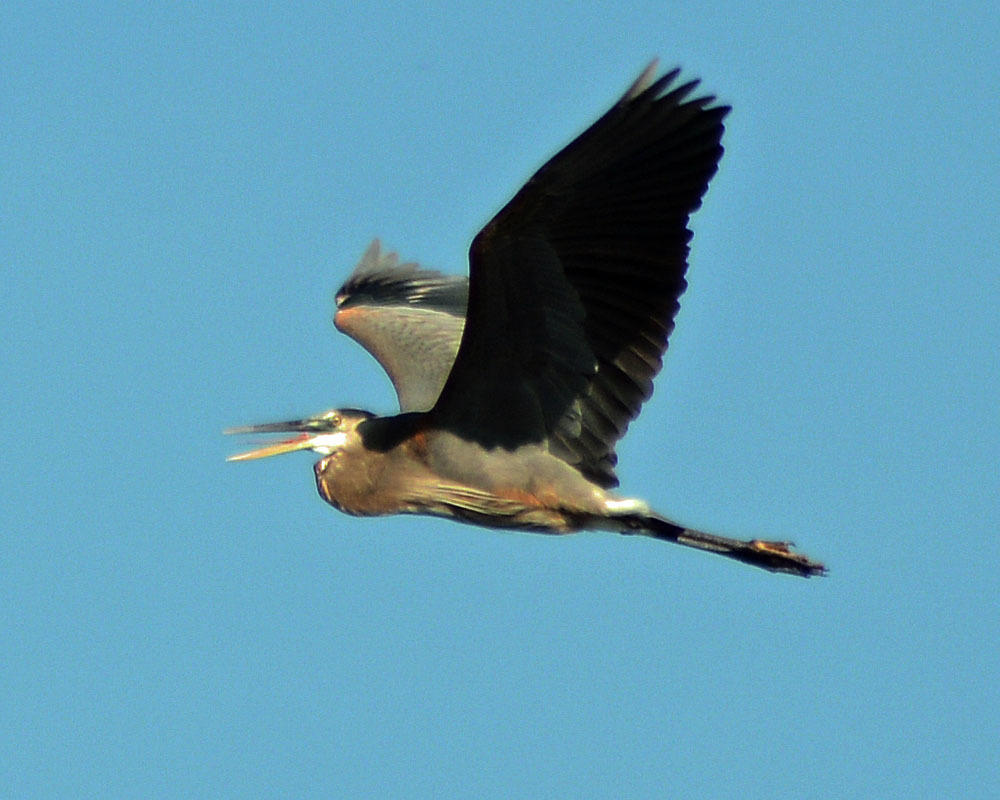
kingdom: Animalia
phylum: Chordata
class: Aves
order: Pelecaniformes
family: Ardeidae
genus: Ardea
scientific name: Ardea herodias
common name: Great blue heron
